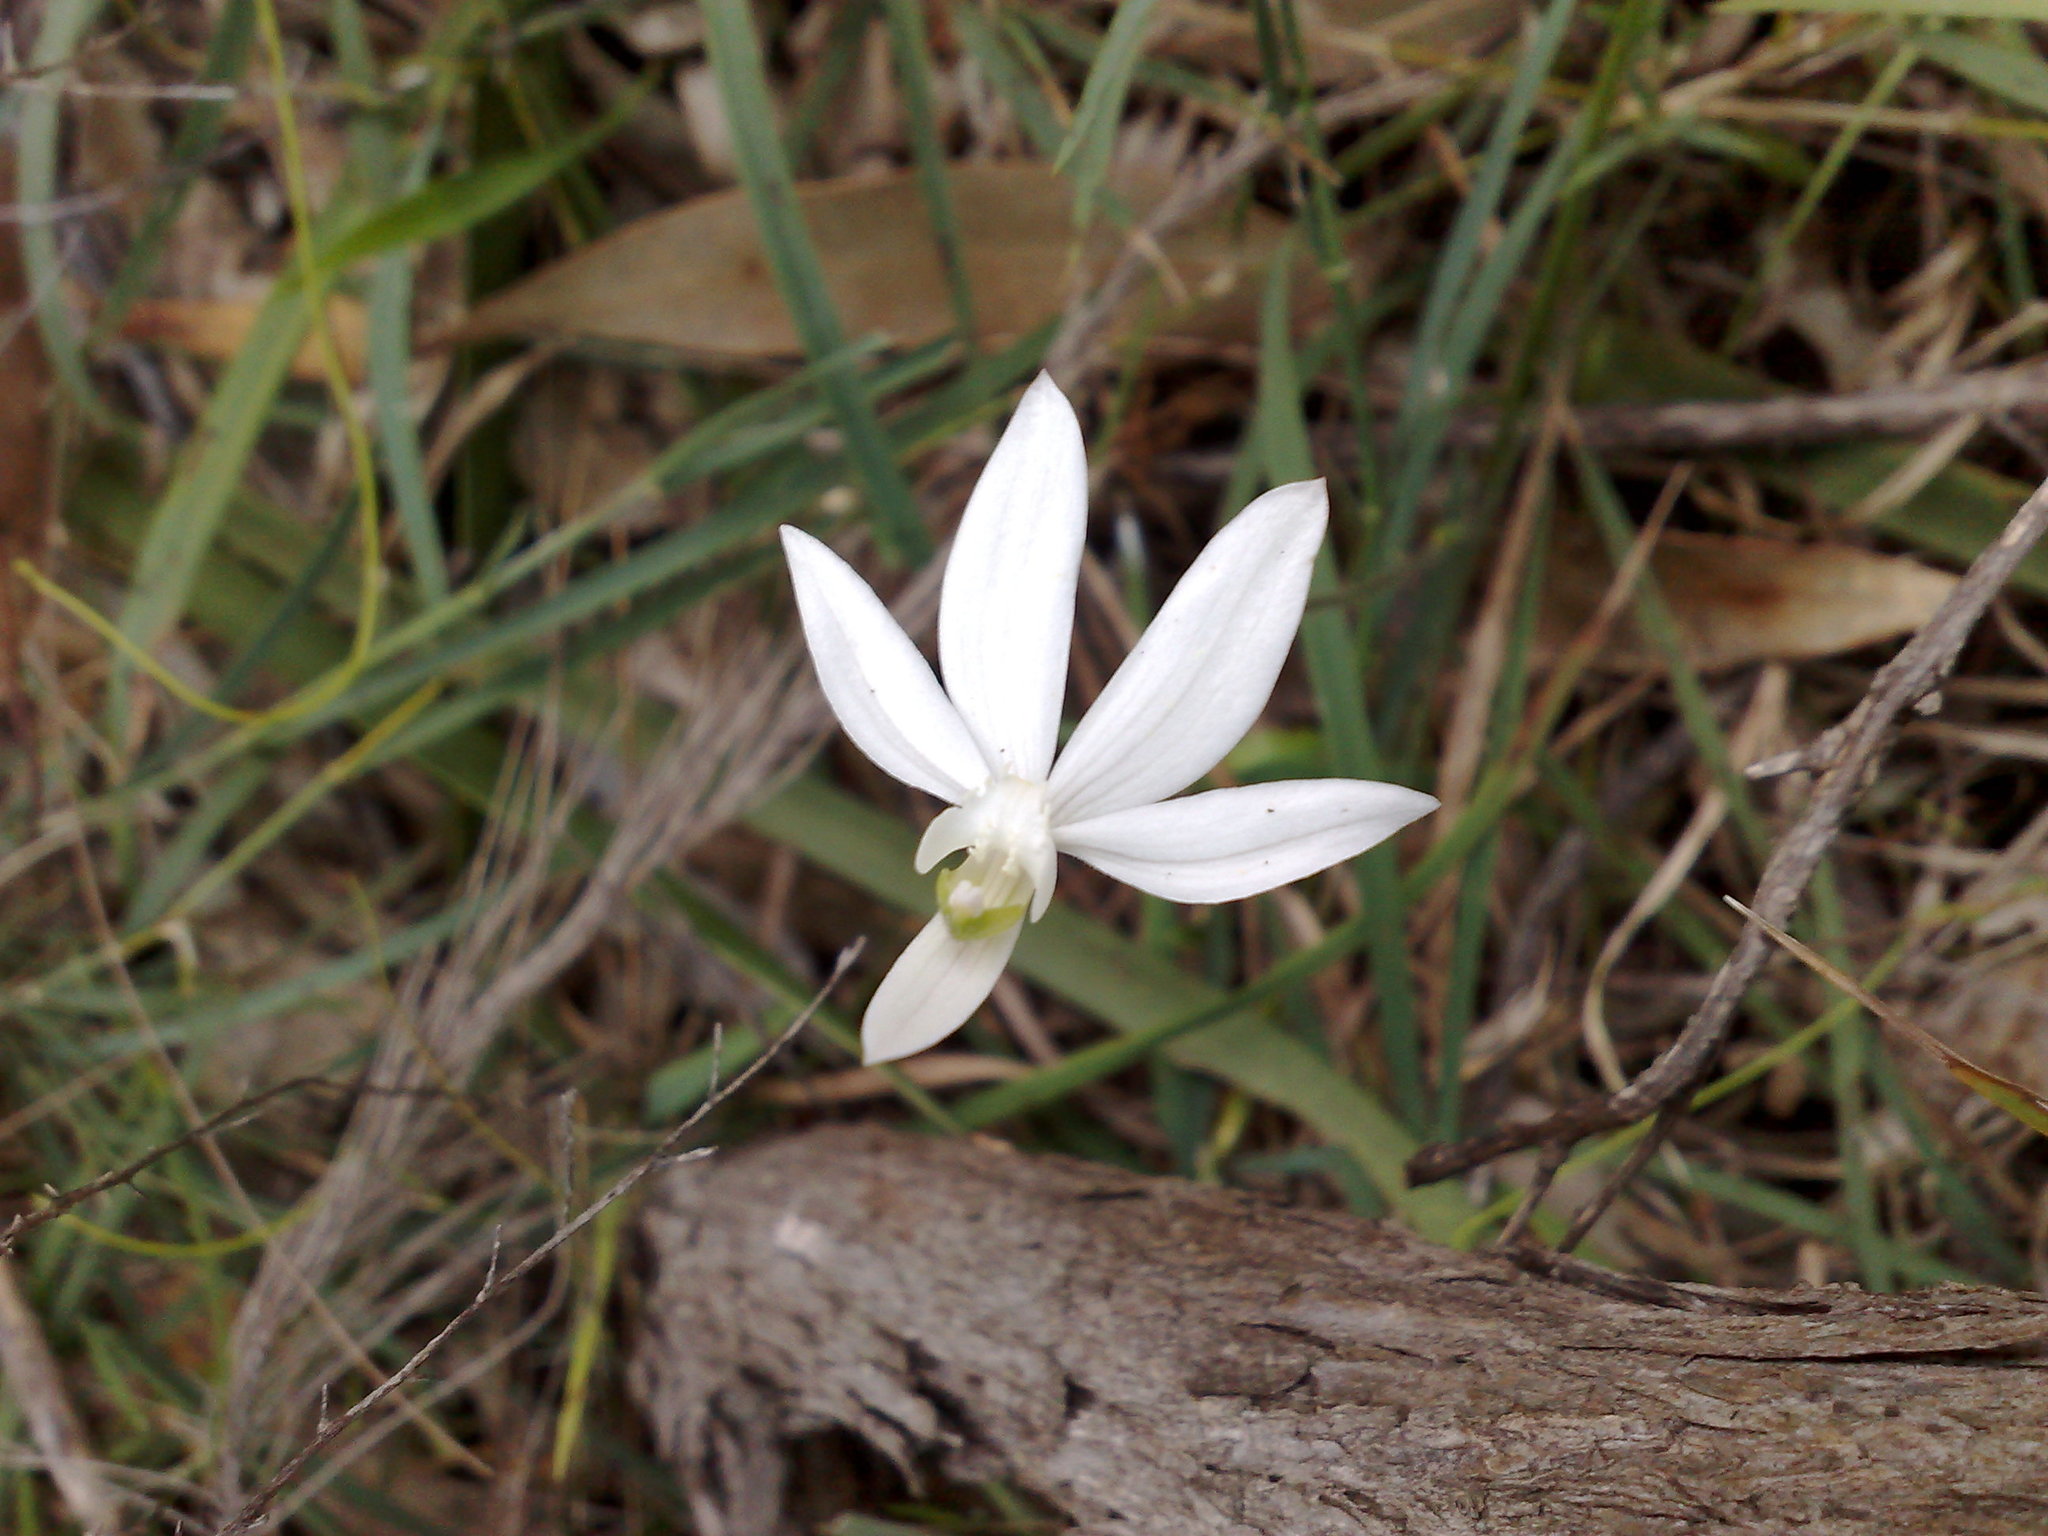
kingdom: Plantae
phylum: Tracheophyta
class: Liliopsida
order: Asparagales
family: Orchidaceae
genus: Caladenia
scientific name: Caladenia catenata
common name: White caladenia
